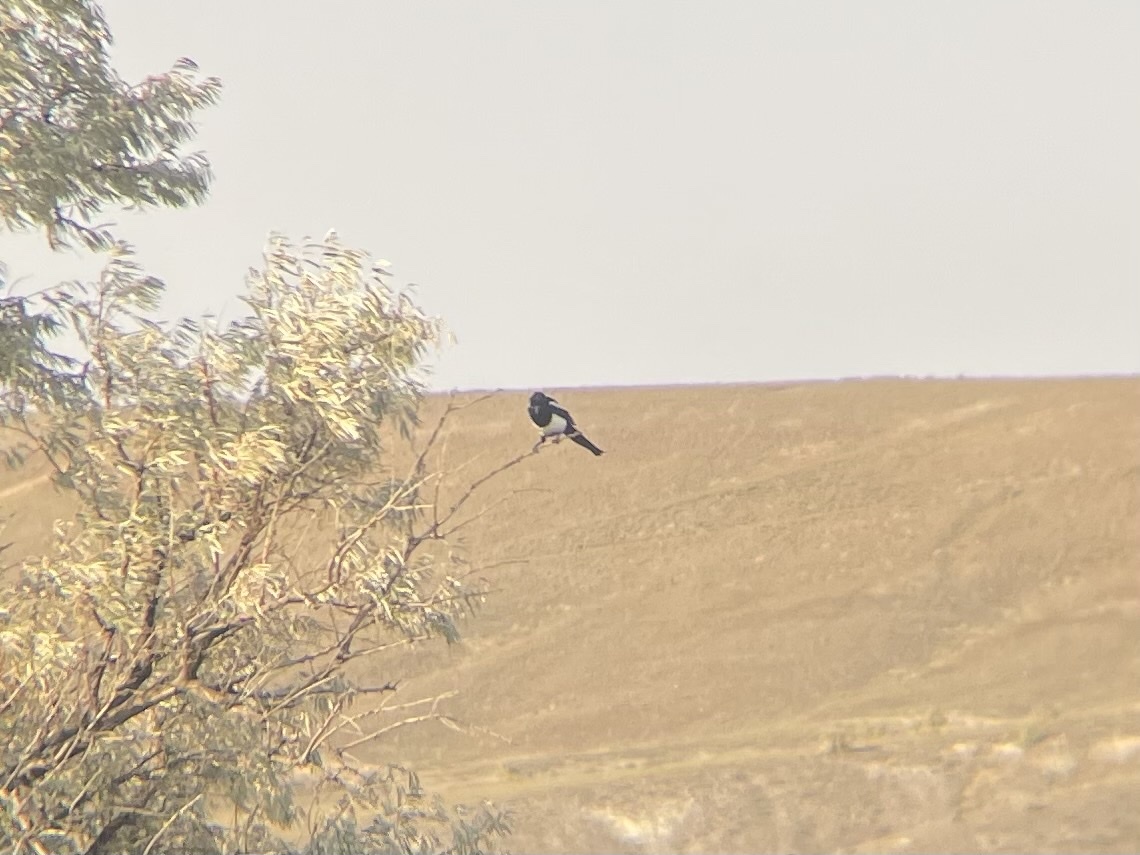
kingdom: Animalia
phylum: Chordata
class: Aves
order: Passeriformes
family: Corvidae
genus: Pica
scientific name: Pica hudsonia
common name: Black-billed magpie
